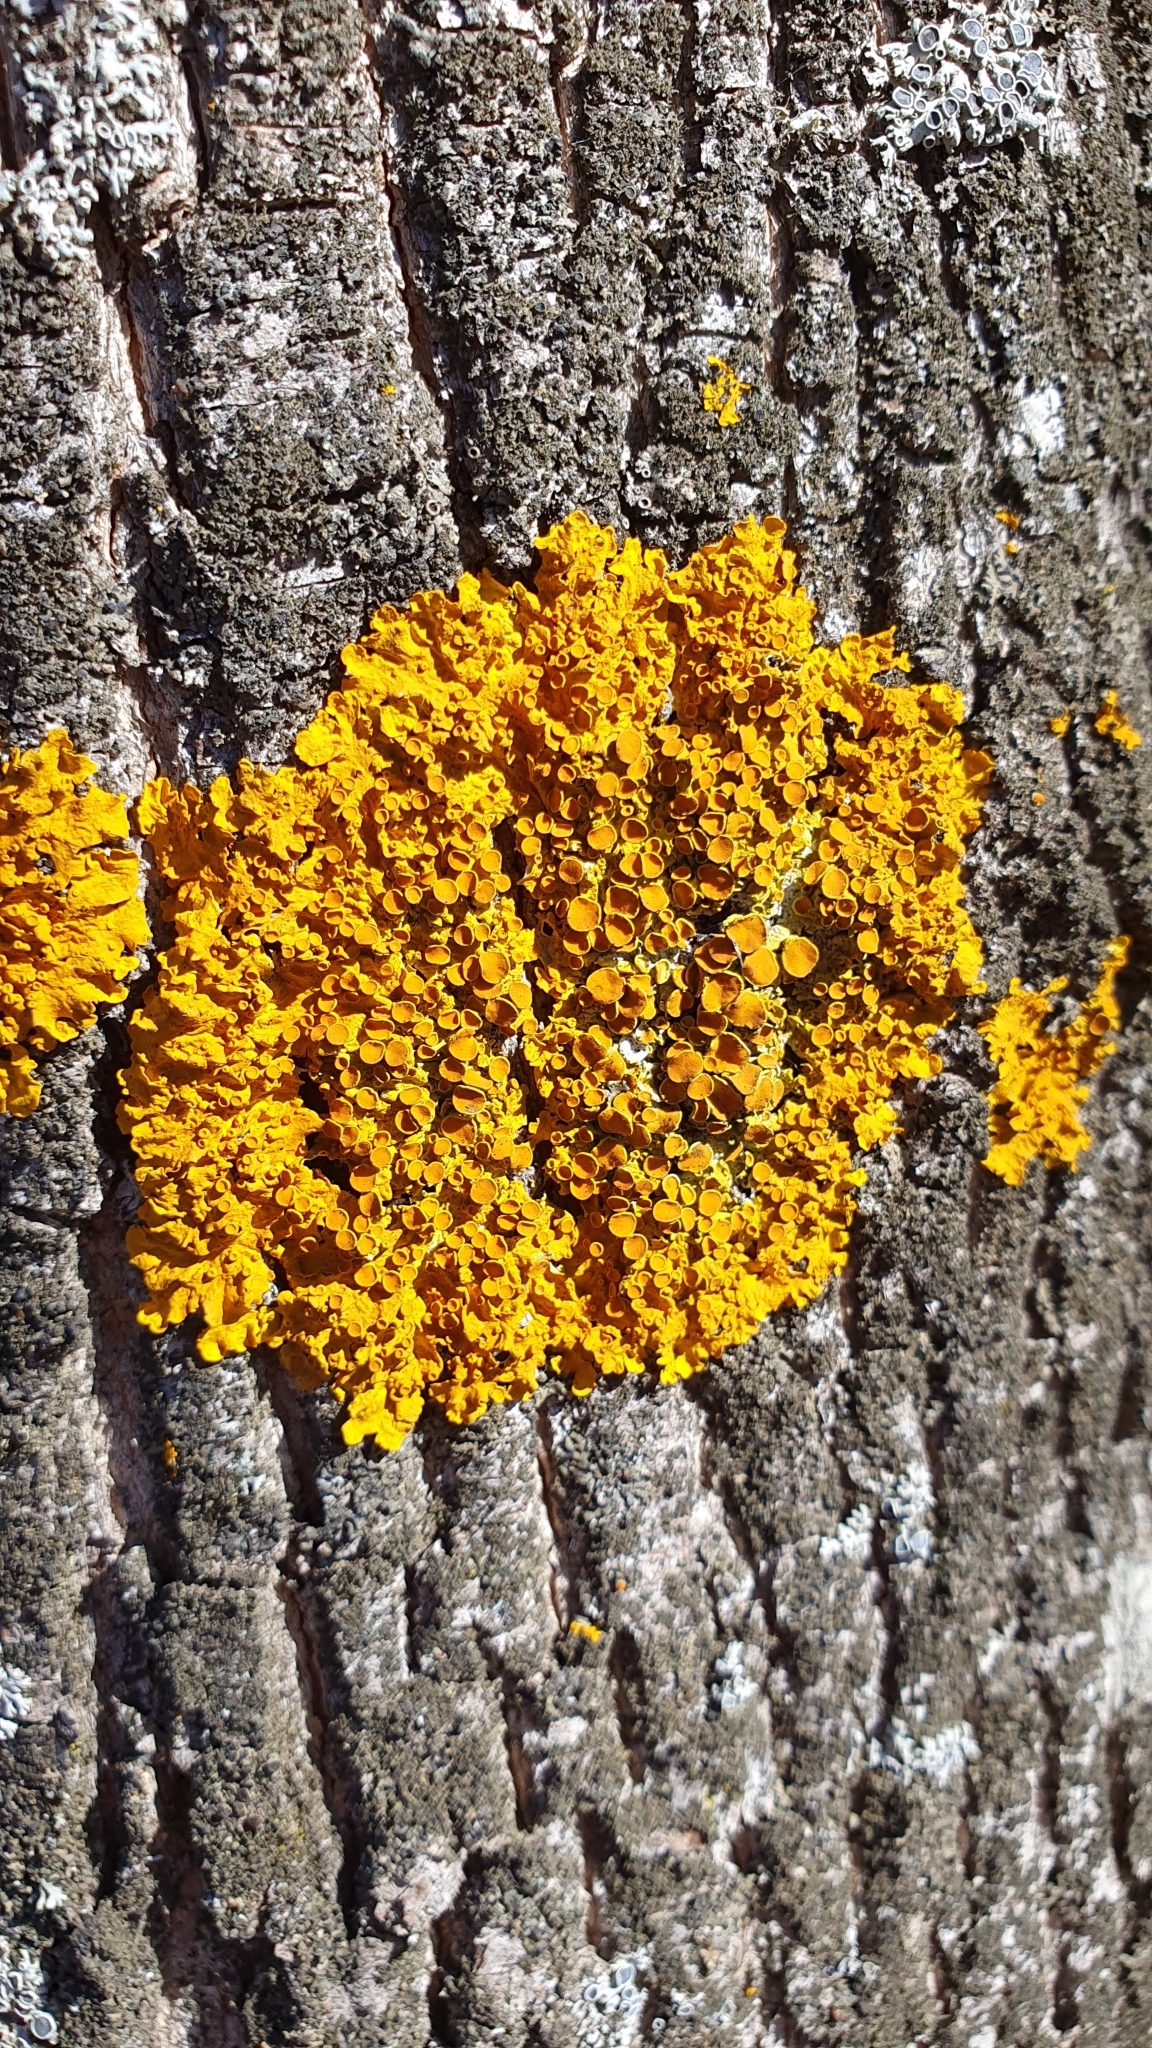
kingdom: Fungi
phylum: Ascomycota
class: Lecanoromycetes
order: Teloschistales
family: Teloschistaceae
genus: Xanthoria
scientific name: Xanthoria parietina
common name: Common orange lichen
